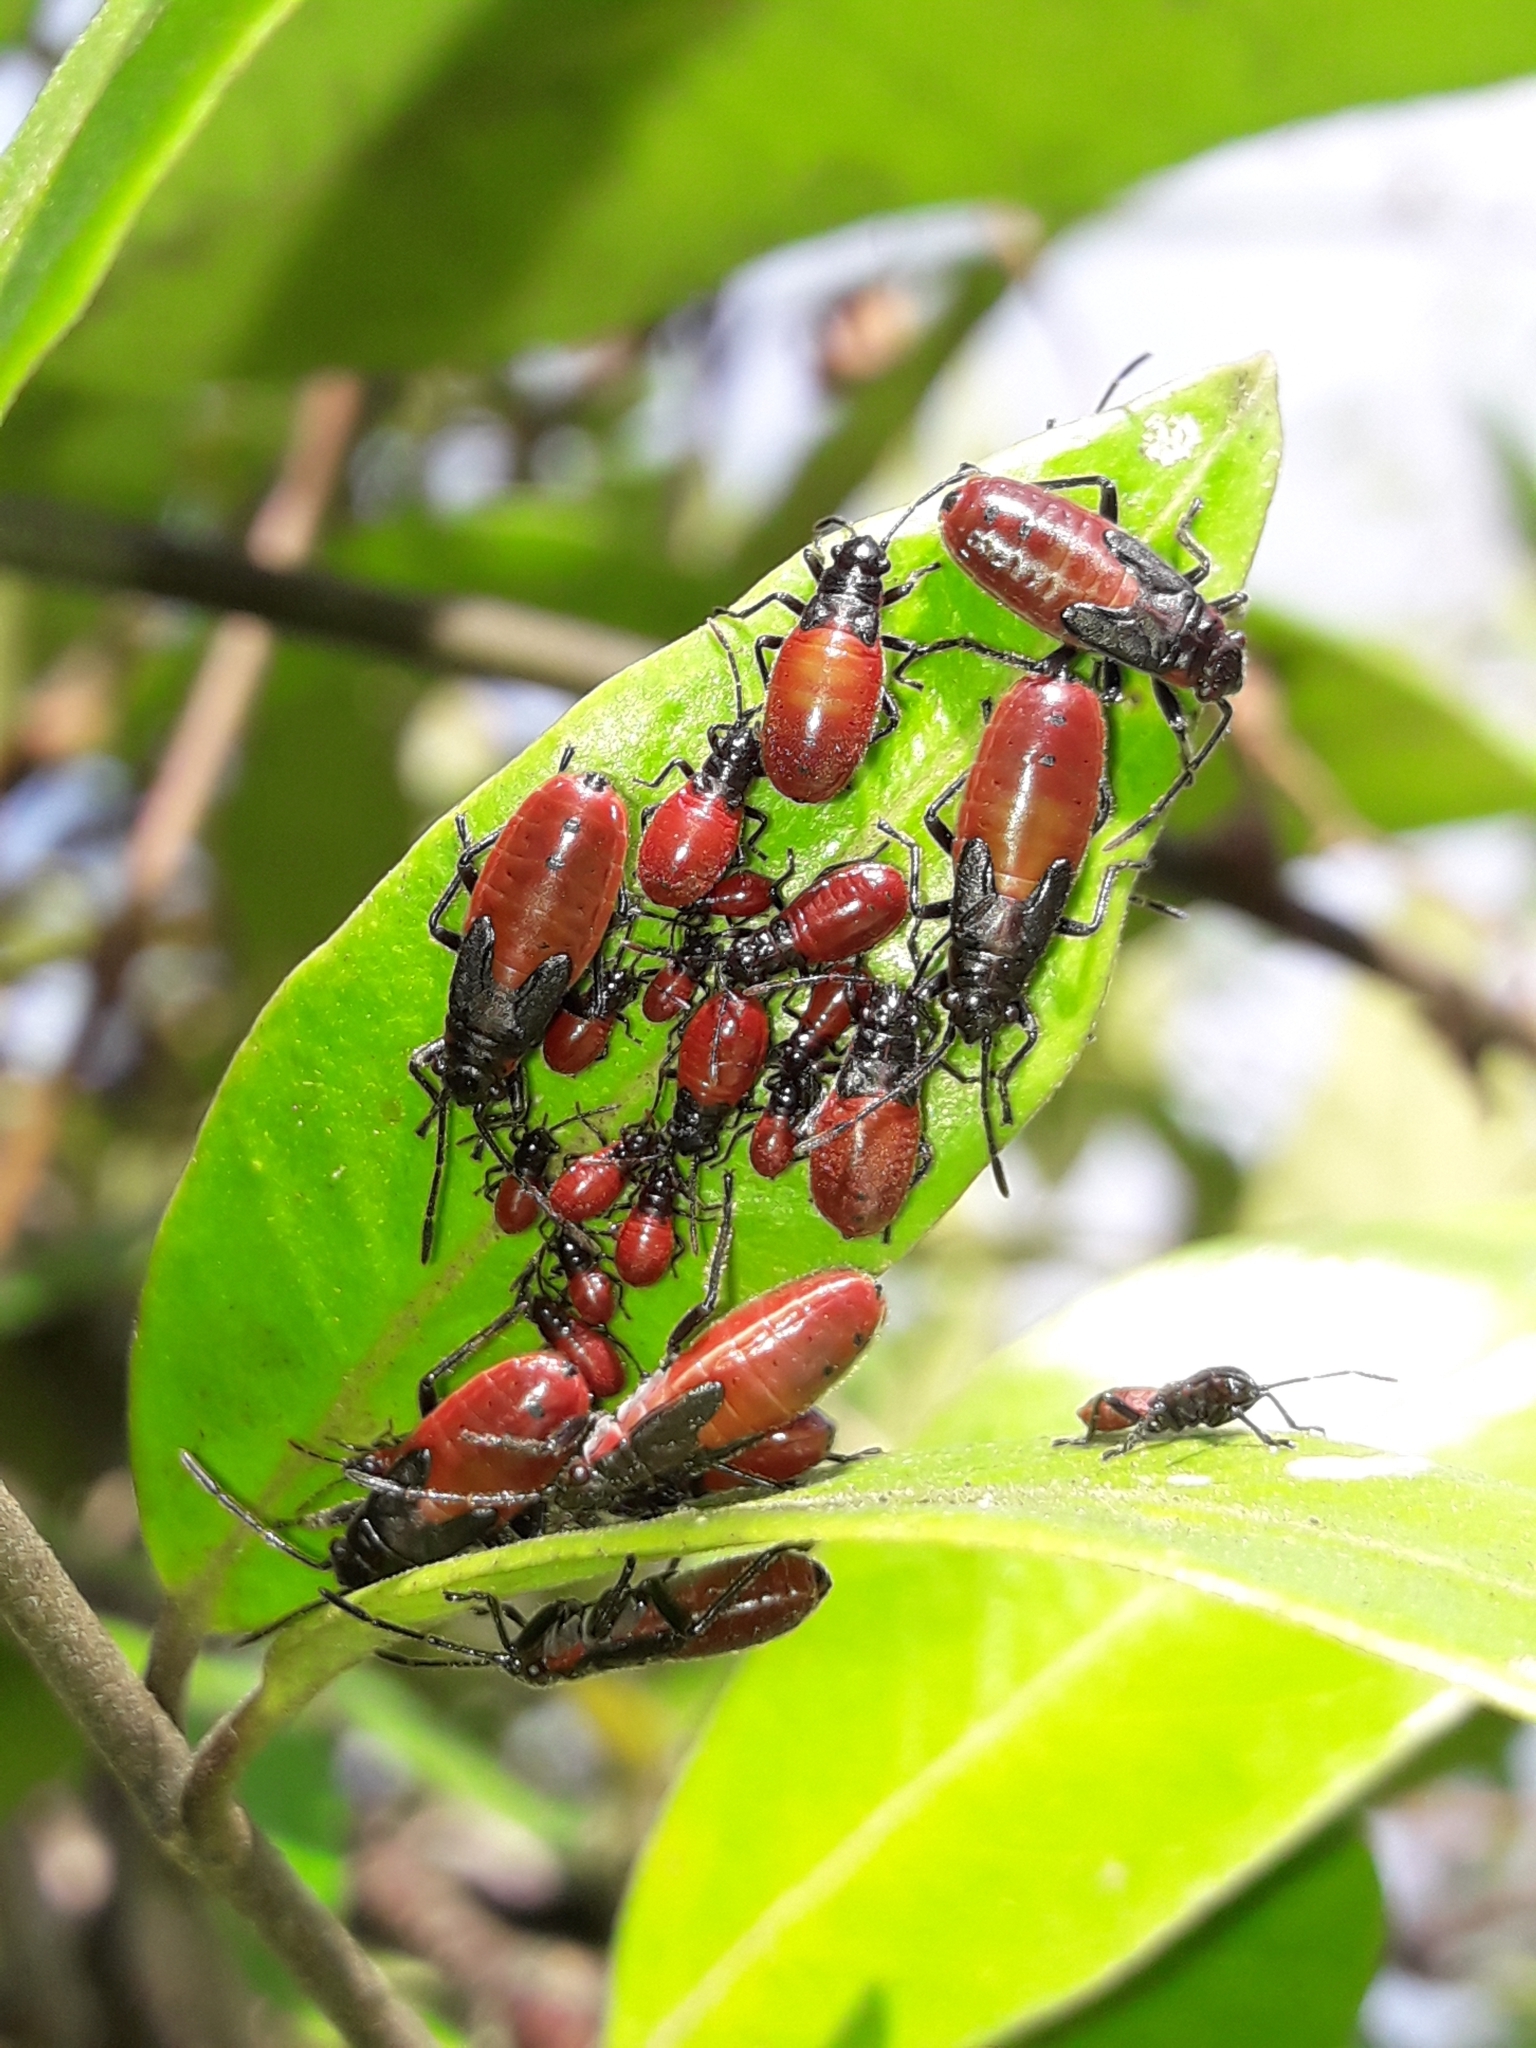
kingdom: Animalia
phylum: Arthropoda
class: Insecta
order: Hemiptera
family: Lygaeidae
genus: Arocatus
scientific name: Arocatus rusticus
